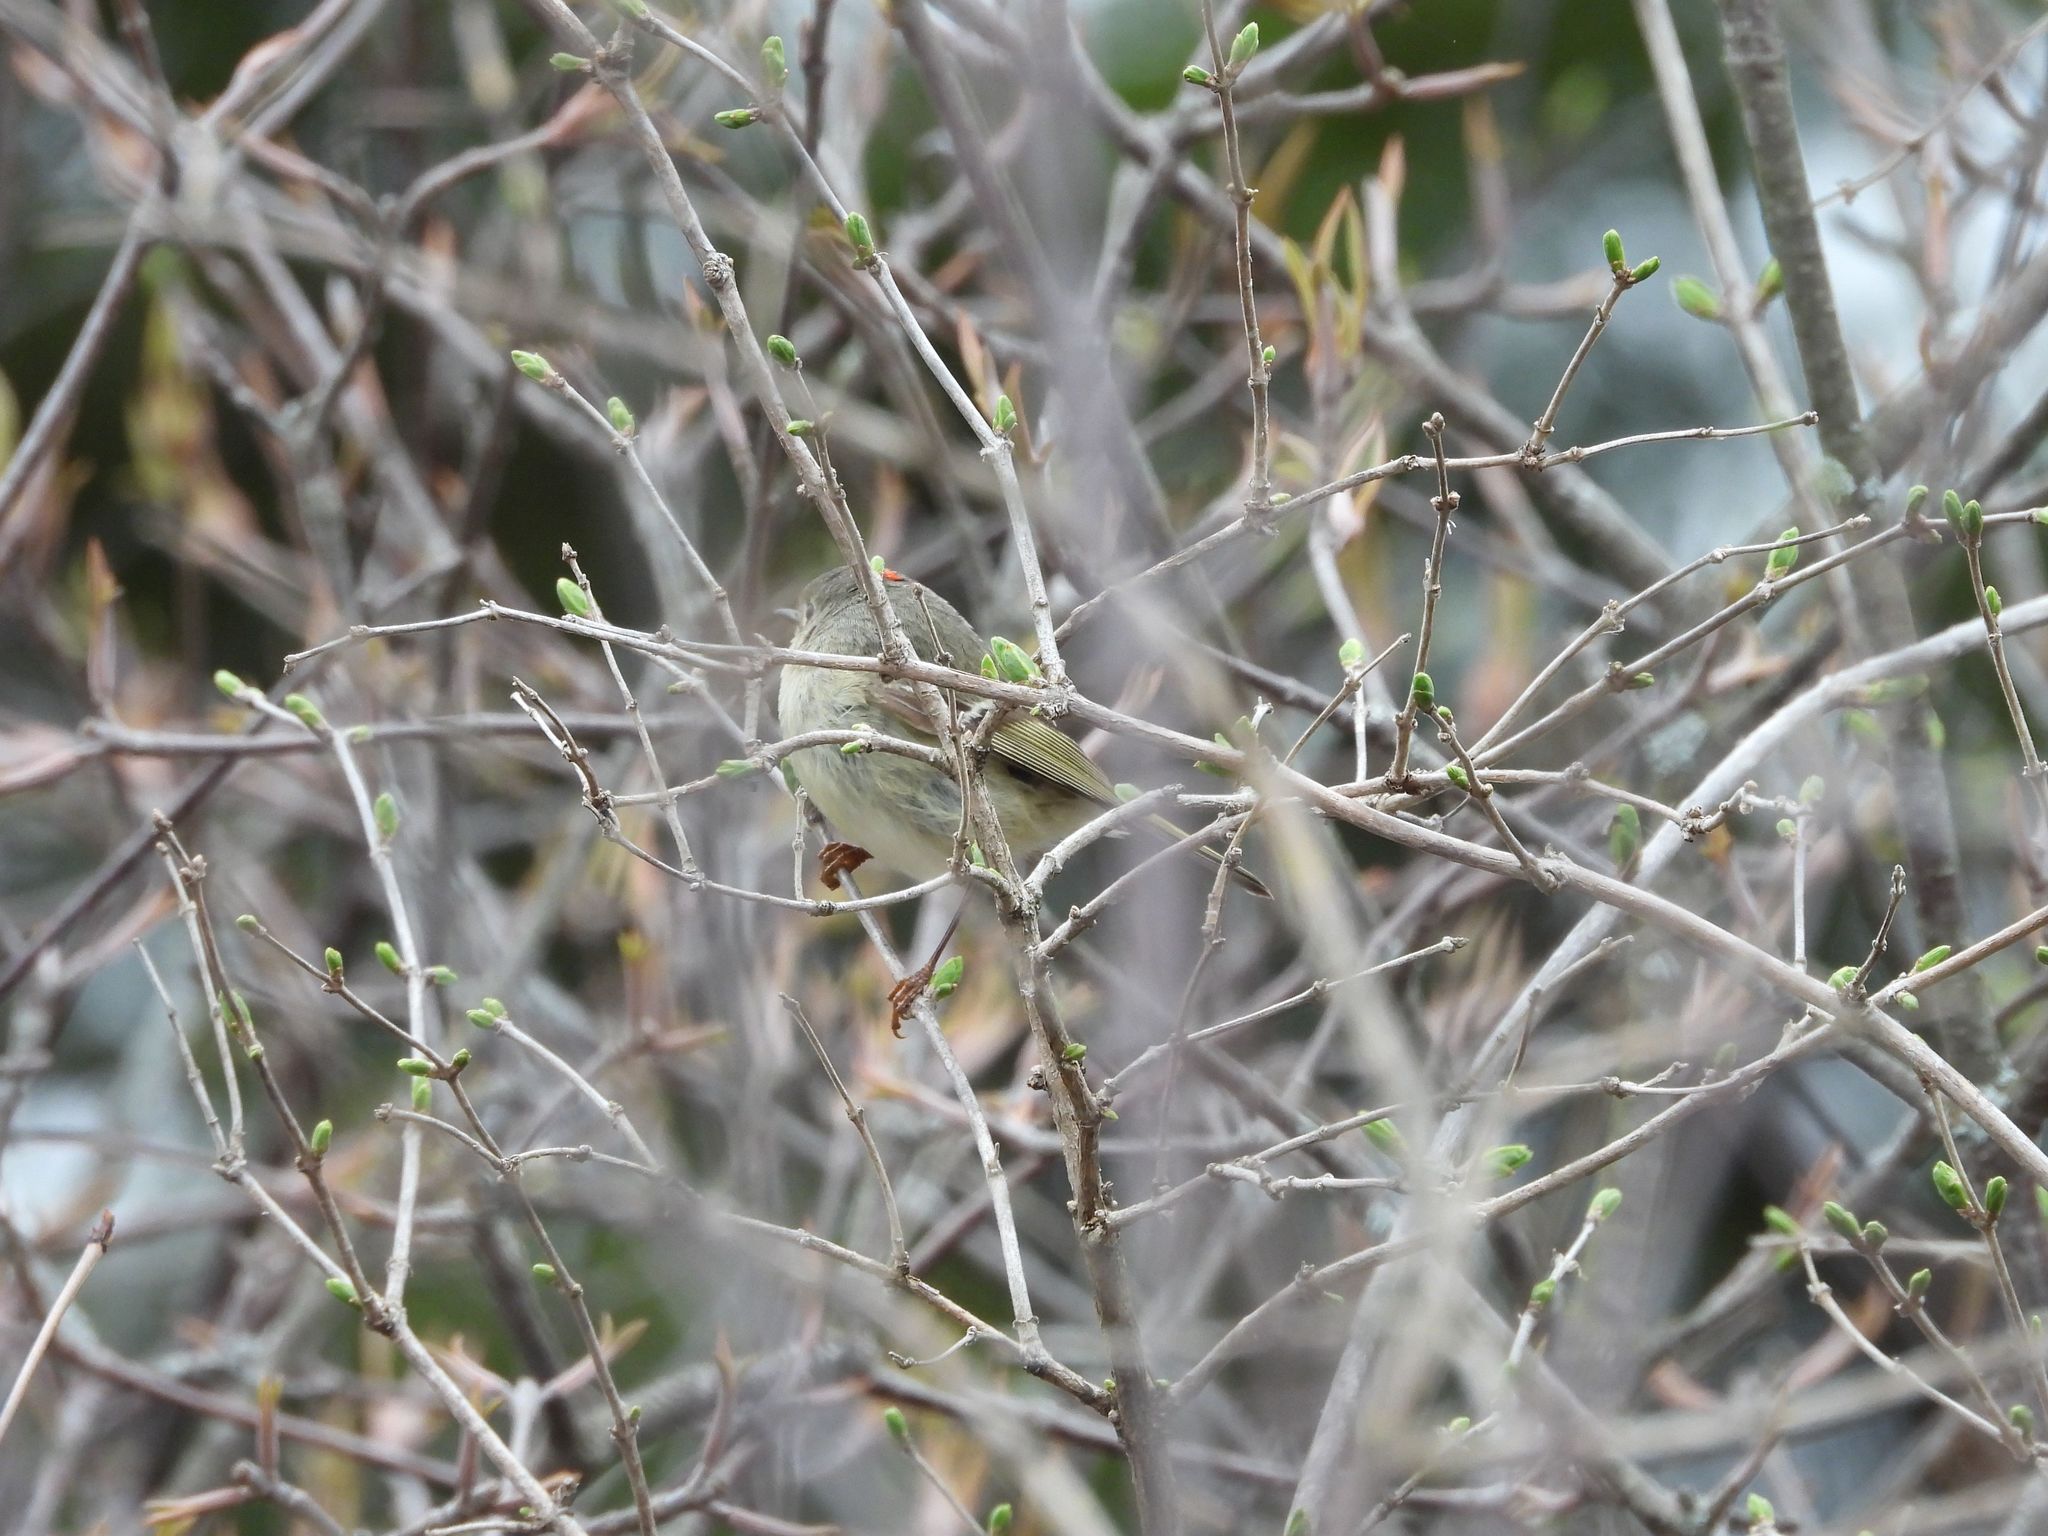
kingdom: Animalia
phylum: Chordata
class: Aves
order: Passeriformes
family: Regulidae
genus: Regulus
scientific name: Regulus calendula
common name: Ruby-crowned kinglet
